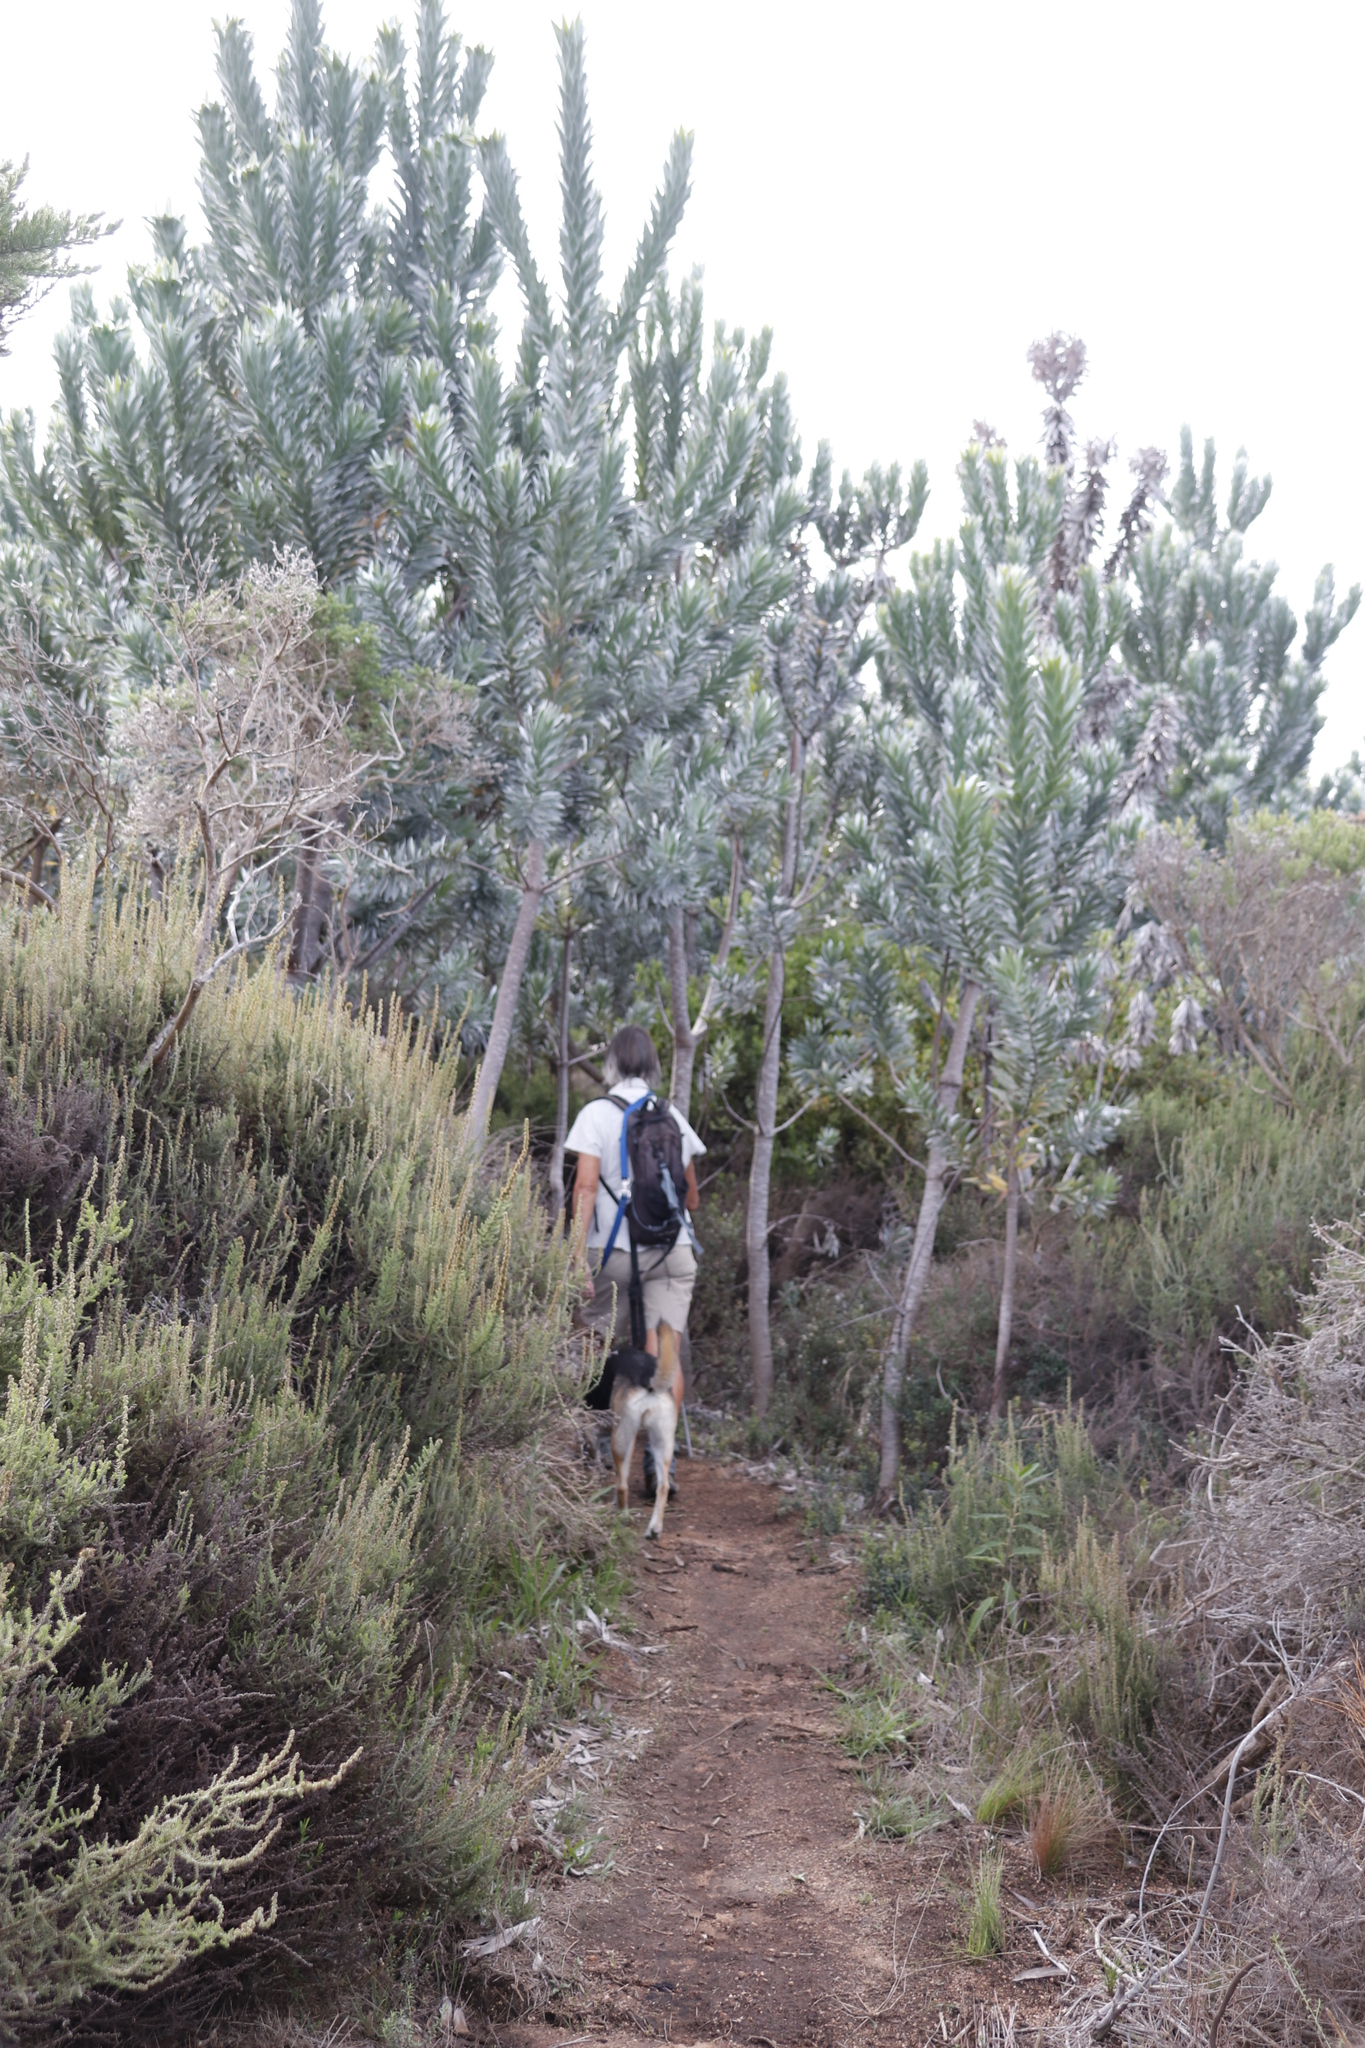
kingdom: Plantae
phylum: Tracheophyta
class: Magnoliopsida
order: Proteales
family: Proteaceae
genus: Leucadendron
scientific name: Leucadendron argenteum
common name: Cape silver tree
